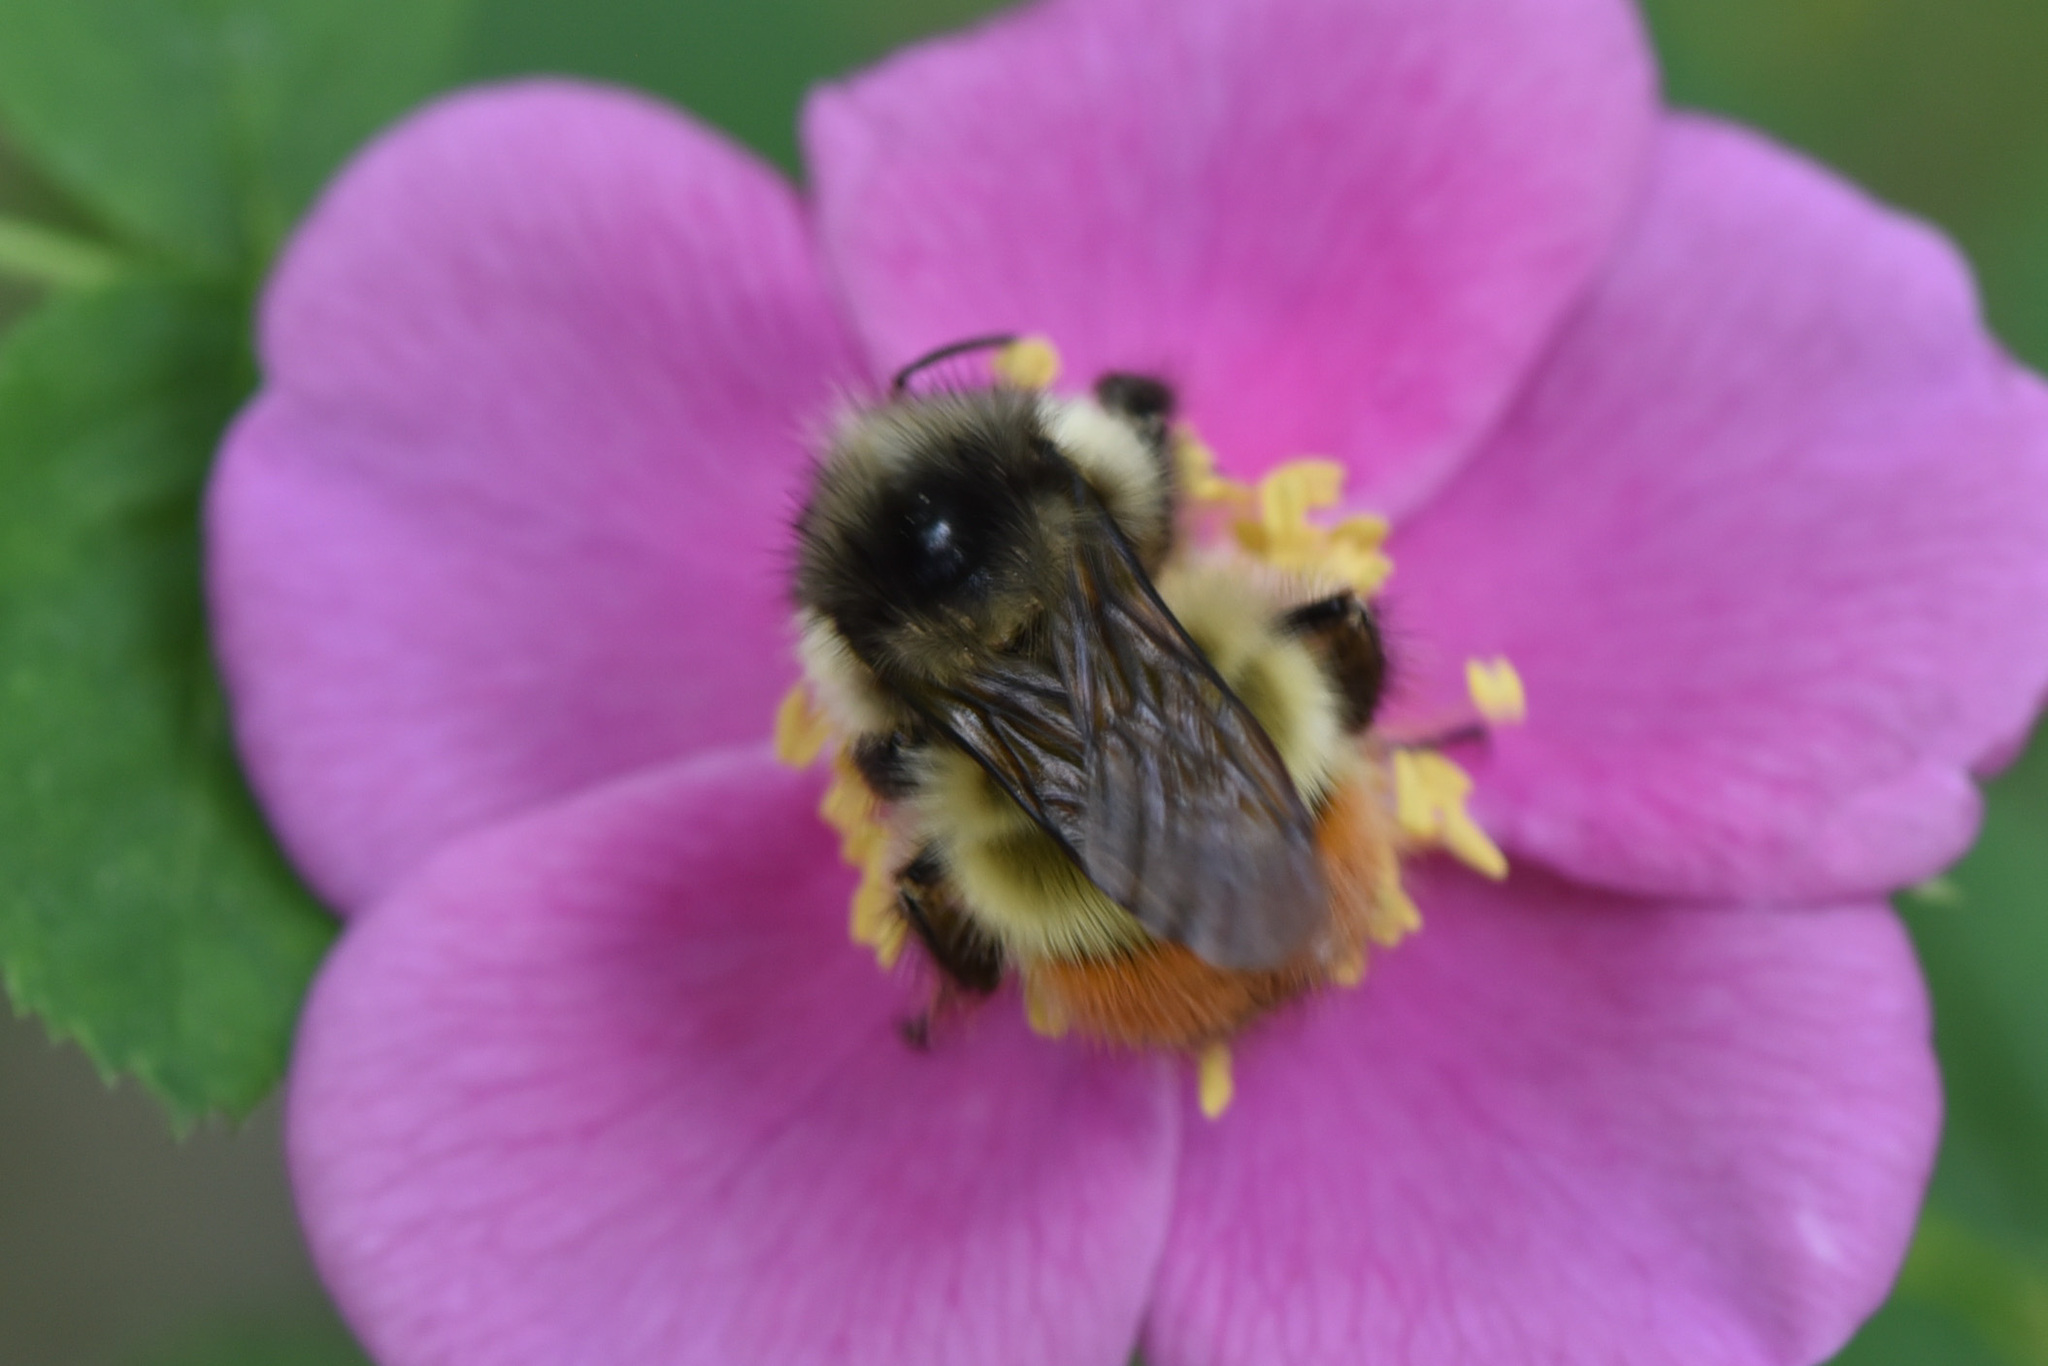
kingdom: Animalia
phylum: Arthropoda
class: Insecta
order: Hymenoptera
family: Apidae
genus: Bombus
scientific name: Bombus flavifrons
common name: Yellow head bumble bee
